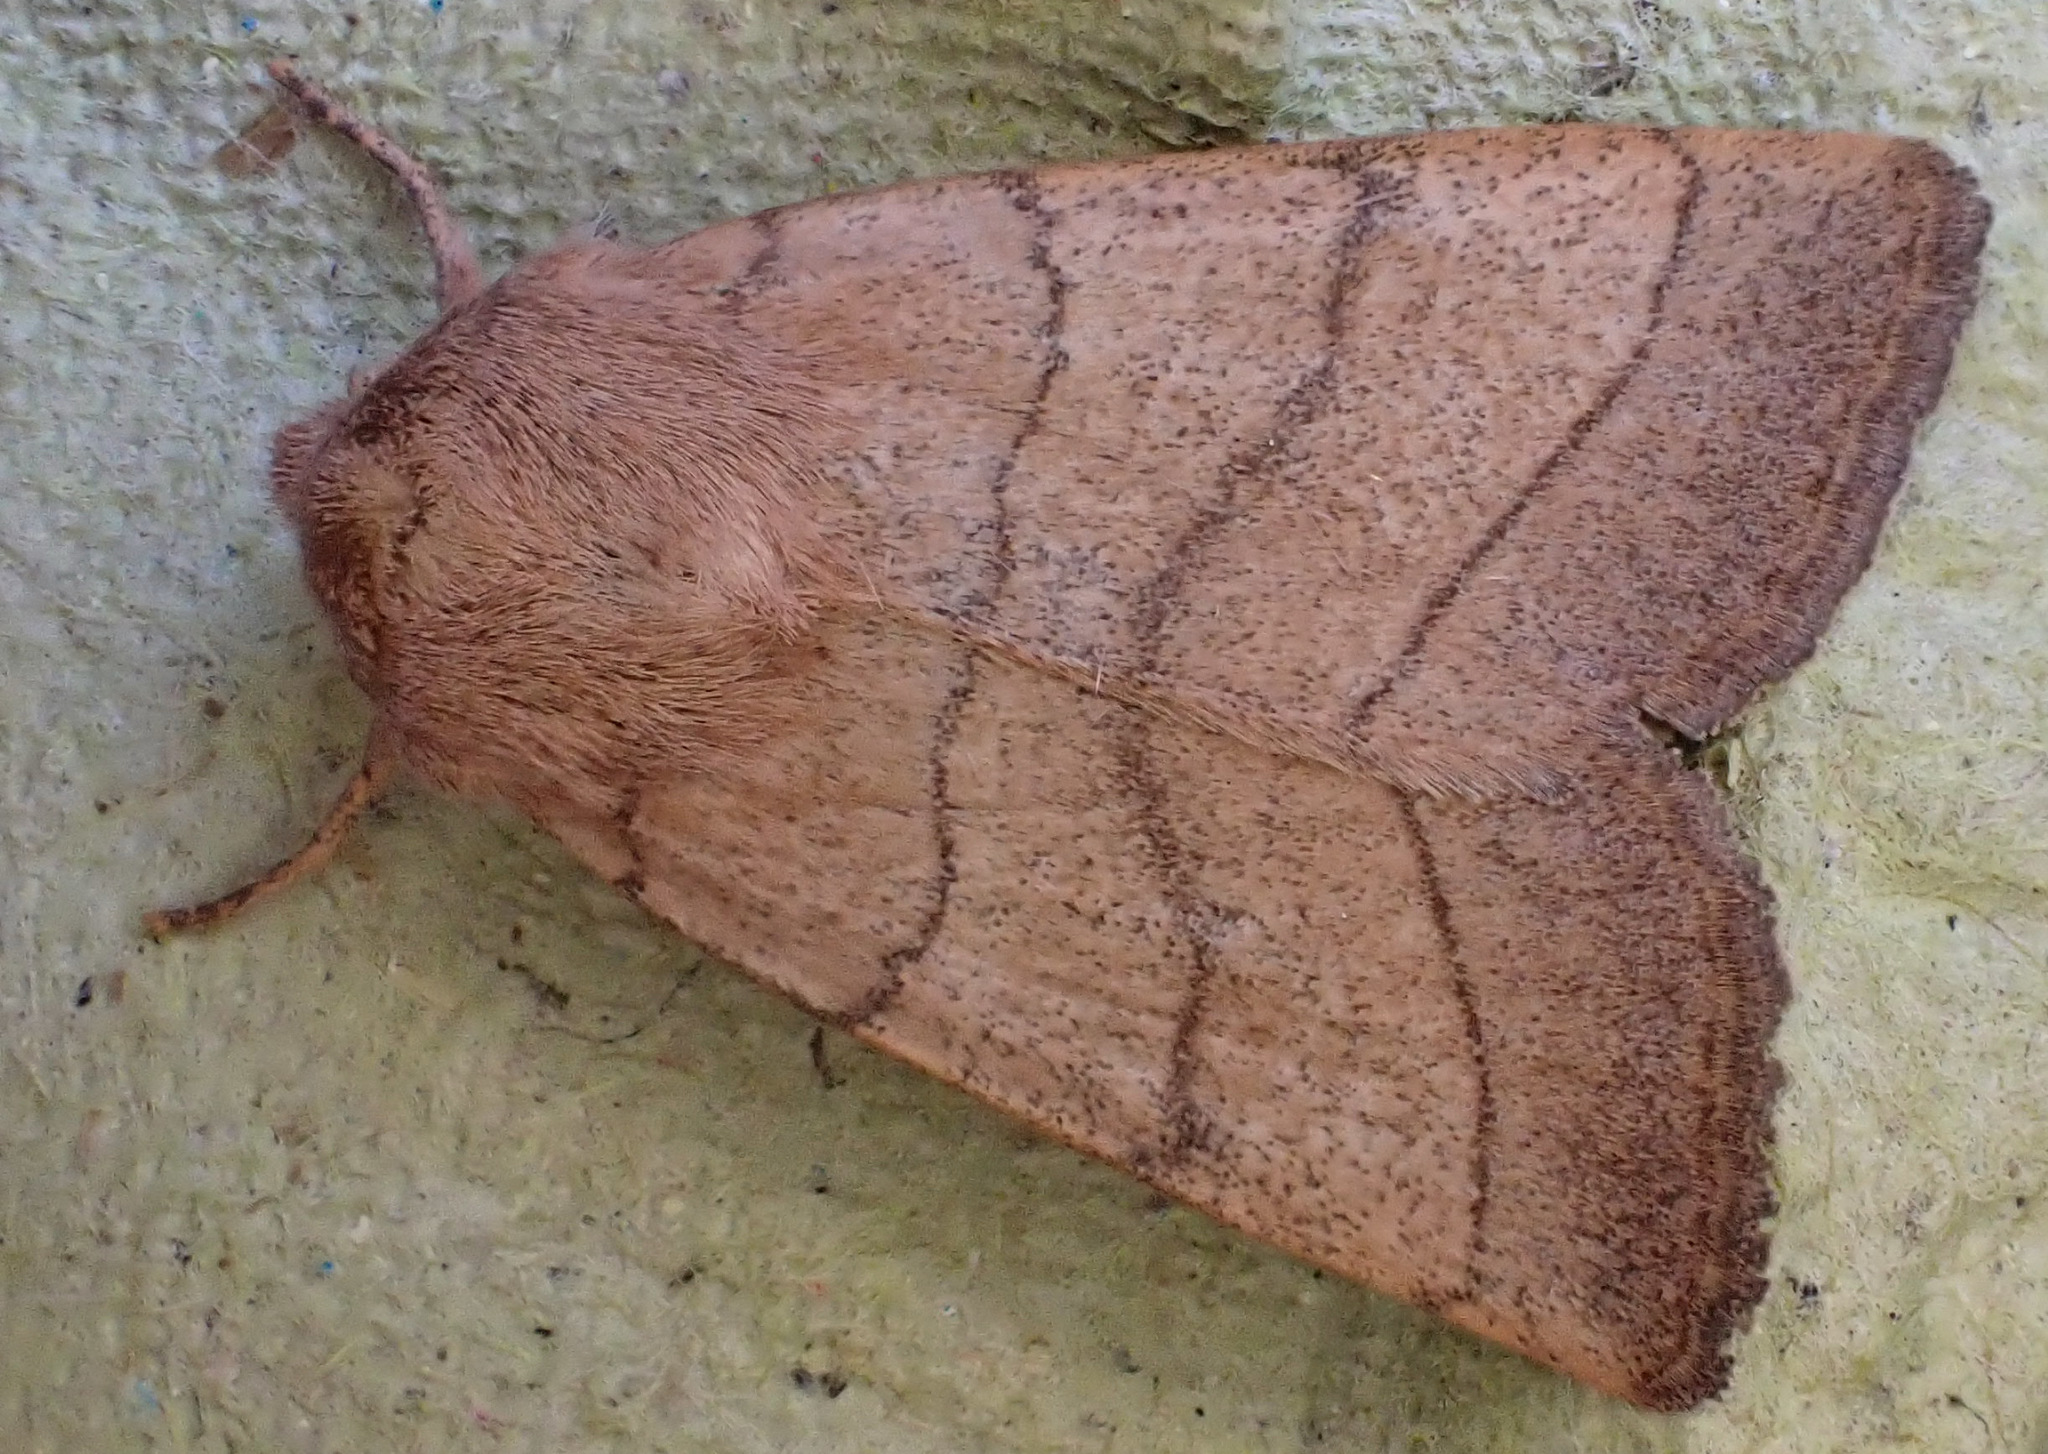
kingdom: Animalia
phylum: Arthropoda
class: Insecta
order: Lepidoptera
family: Noctuidae
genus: Charanyca
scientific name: Charanyca trigrammica
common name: Treble lines
